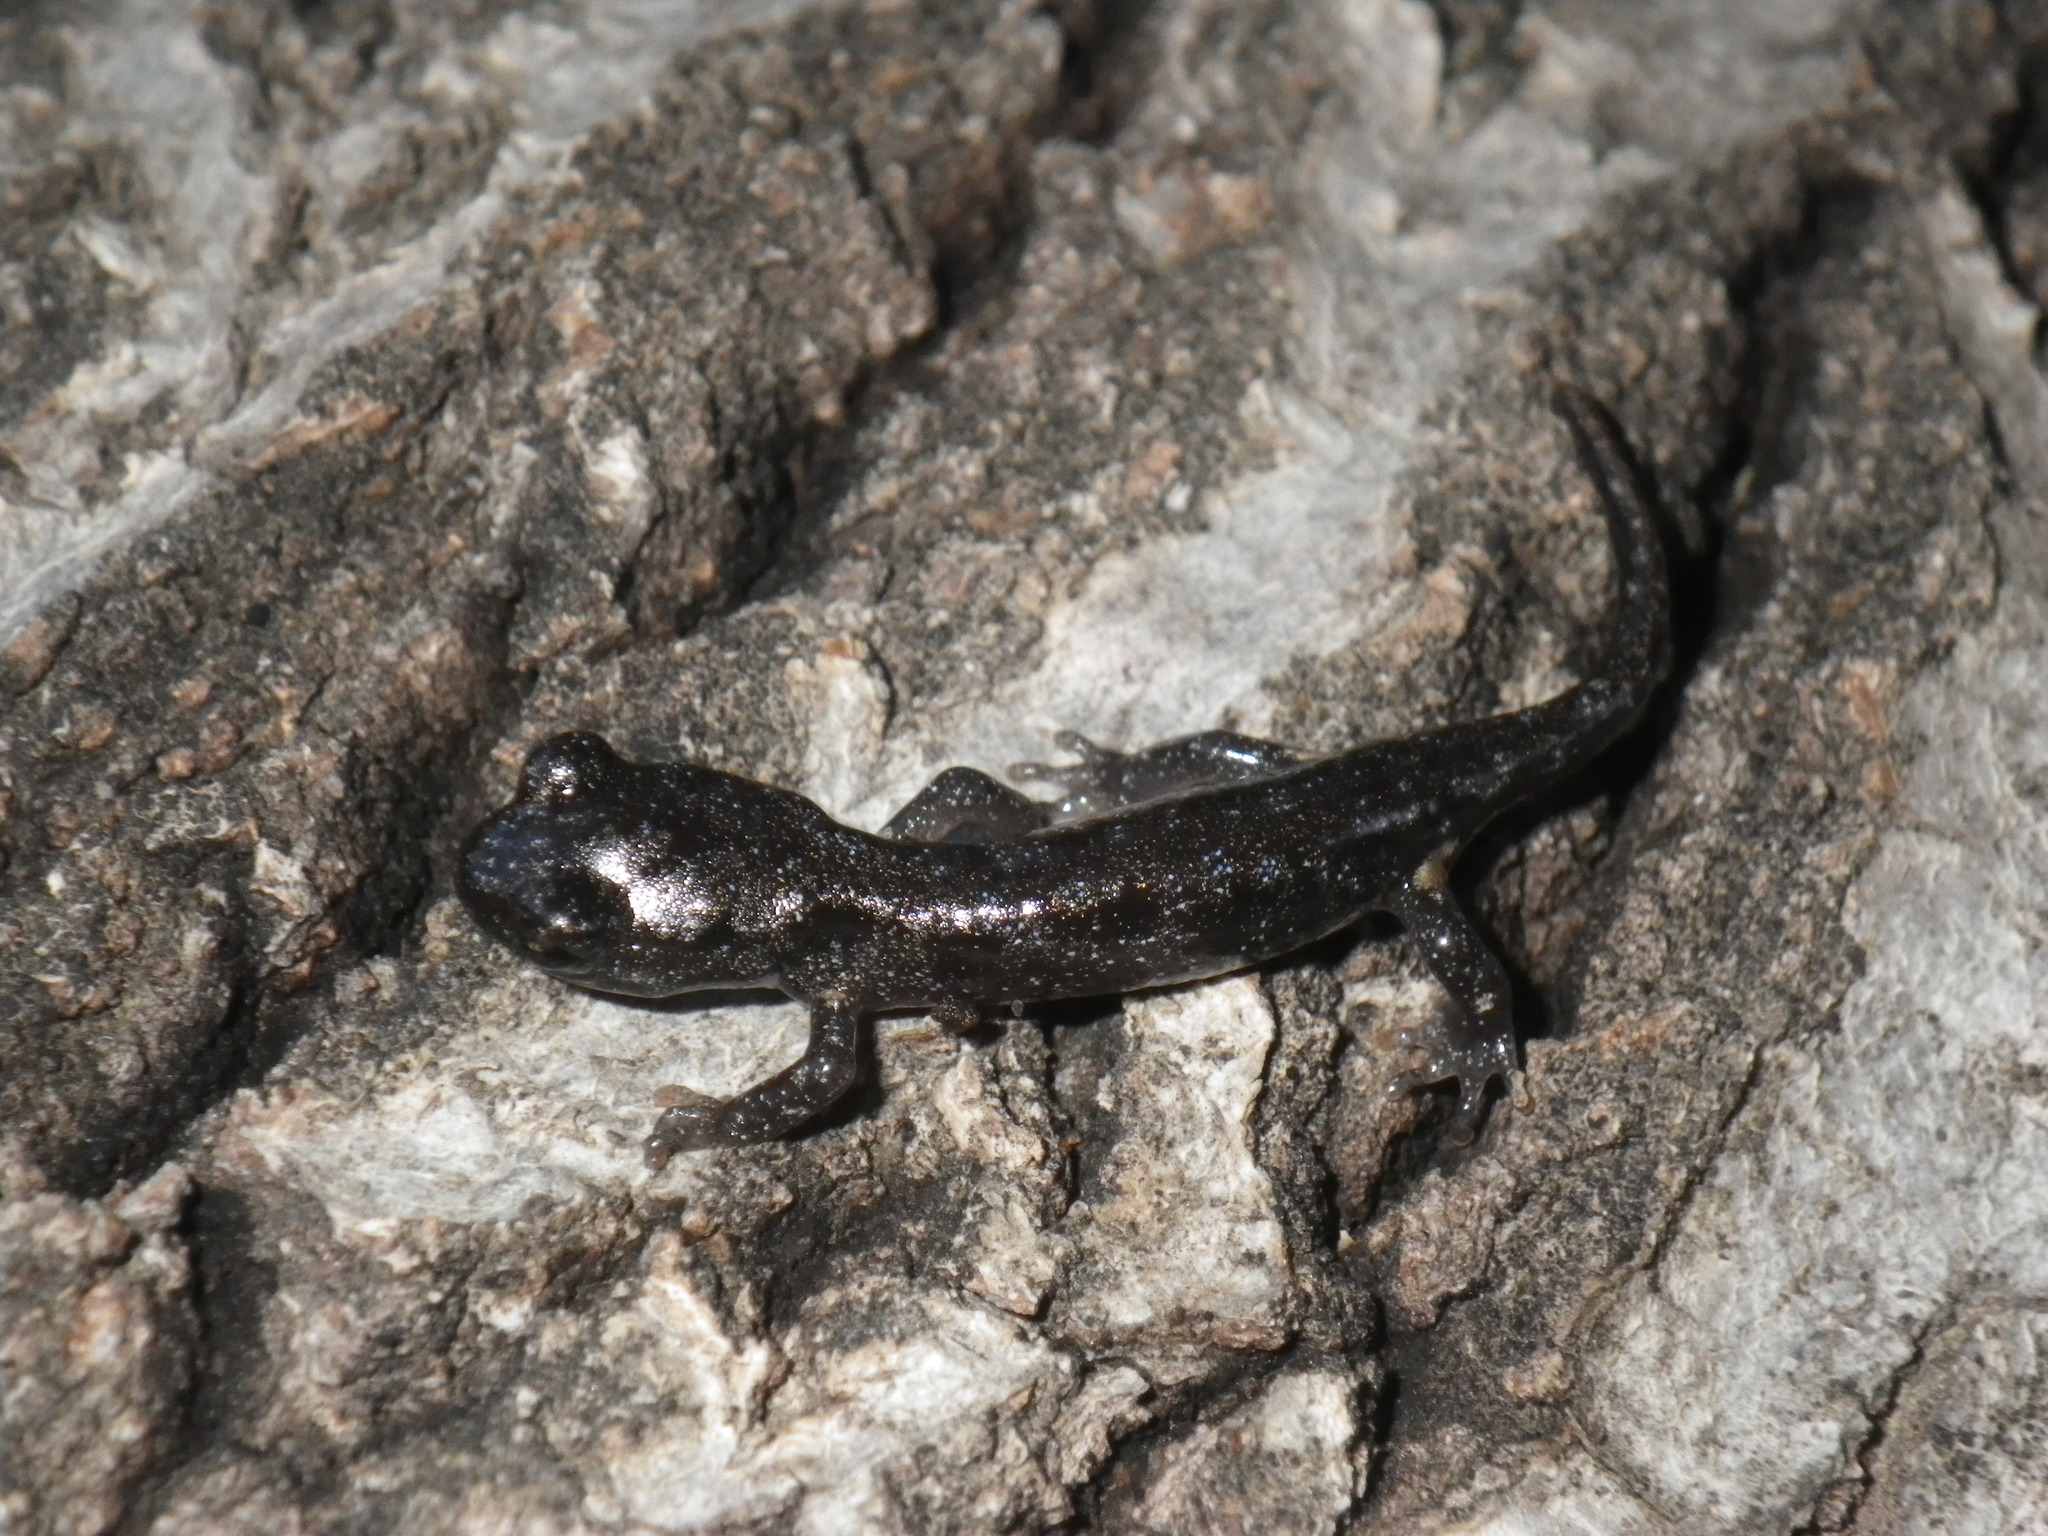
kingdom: Animalia
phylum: Chordata
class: Amphibia
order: Caudata
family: Plethodontidae
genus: Aneides
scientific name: Aneides lugubris
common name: Arboreal salamander
